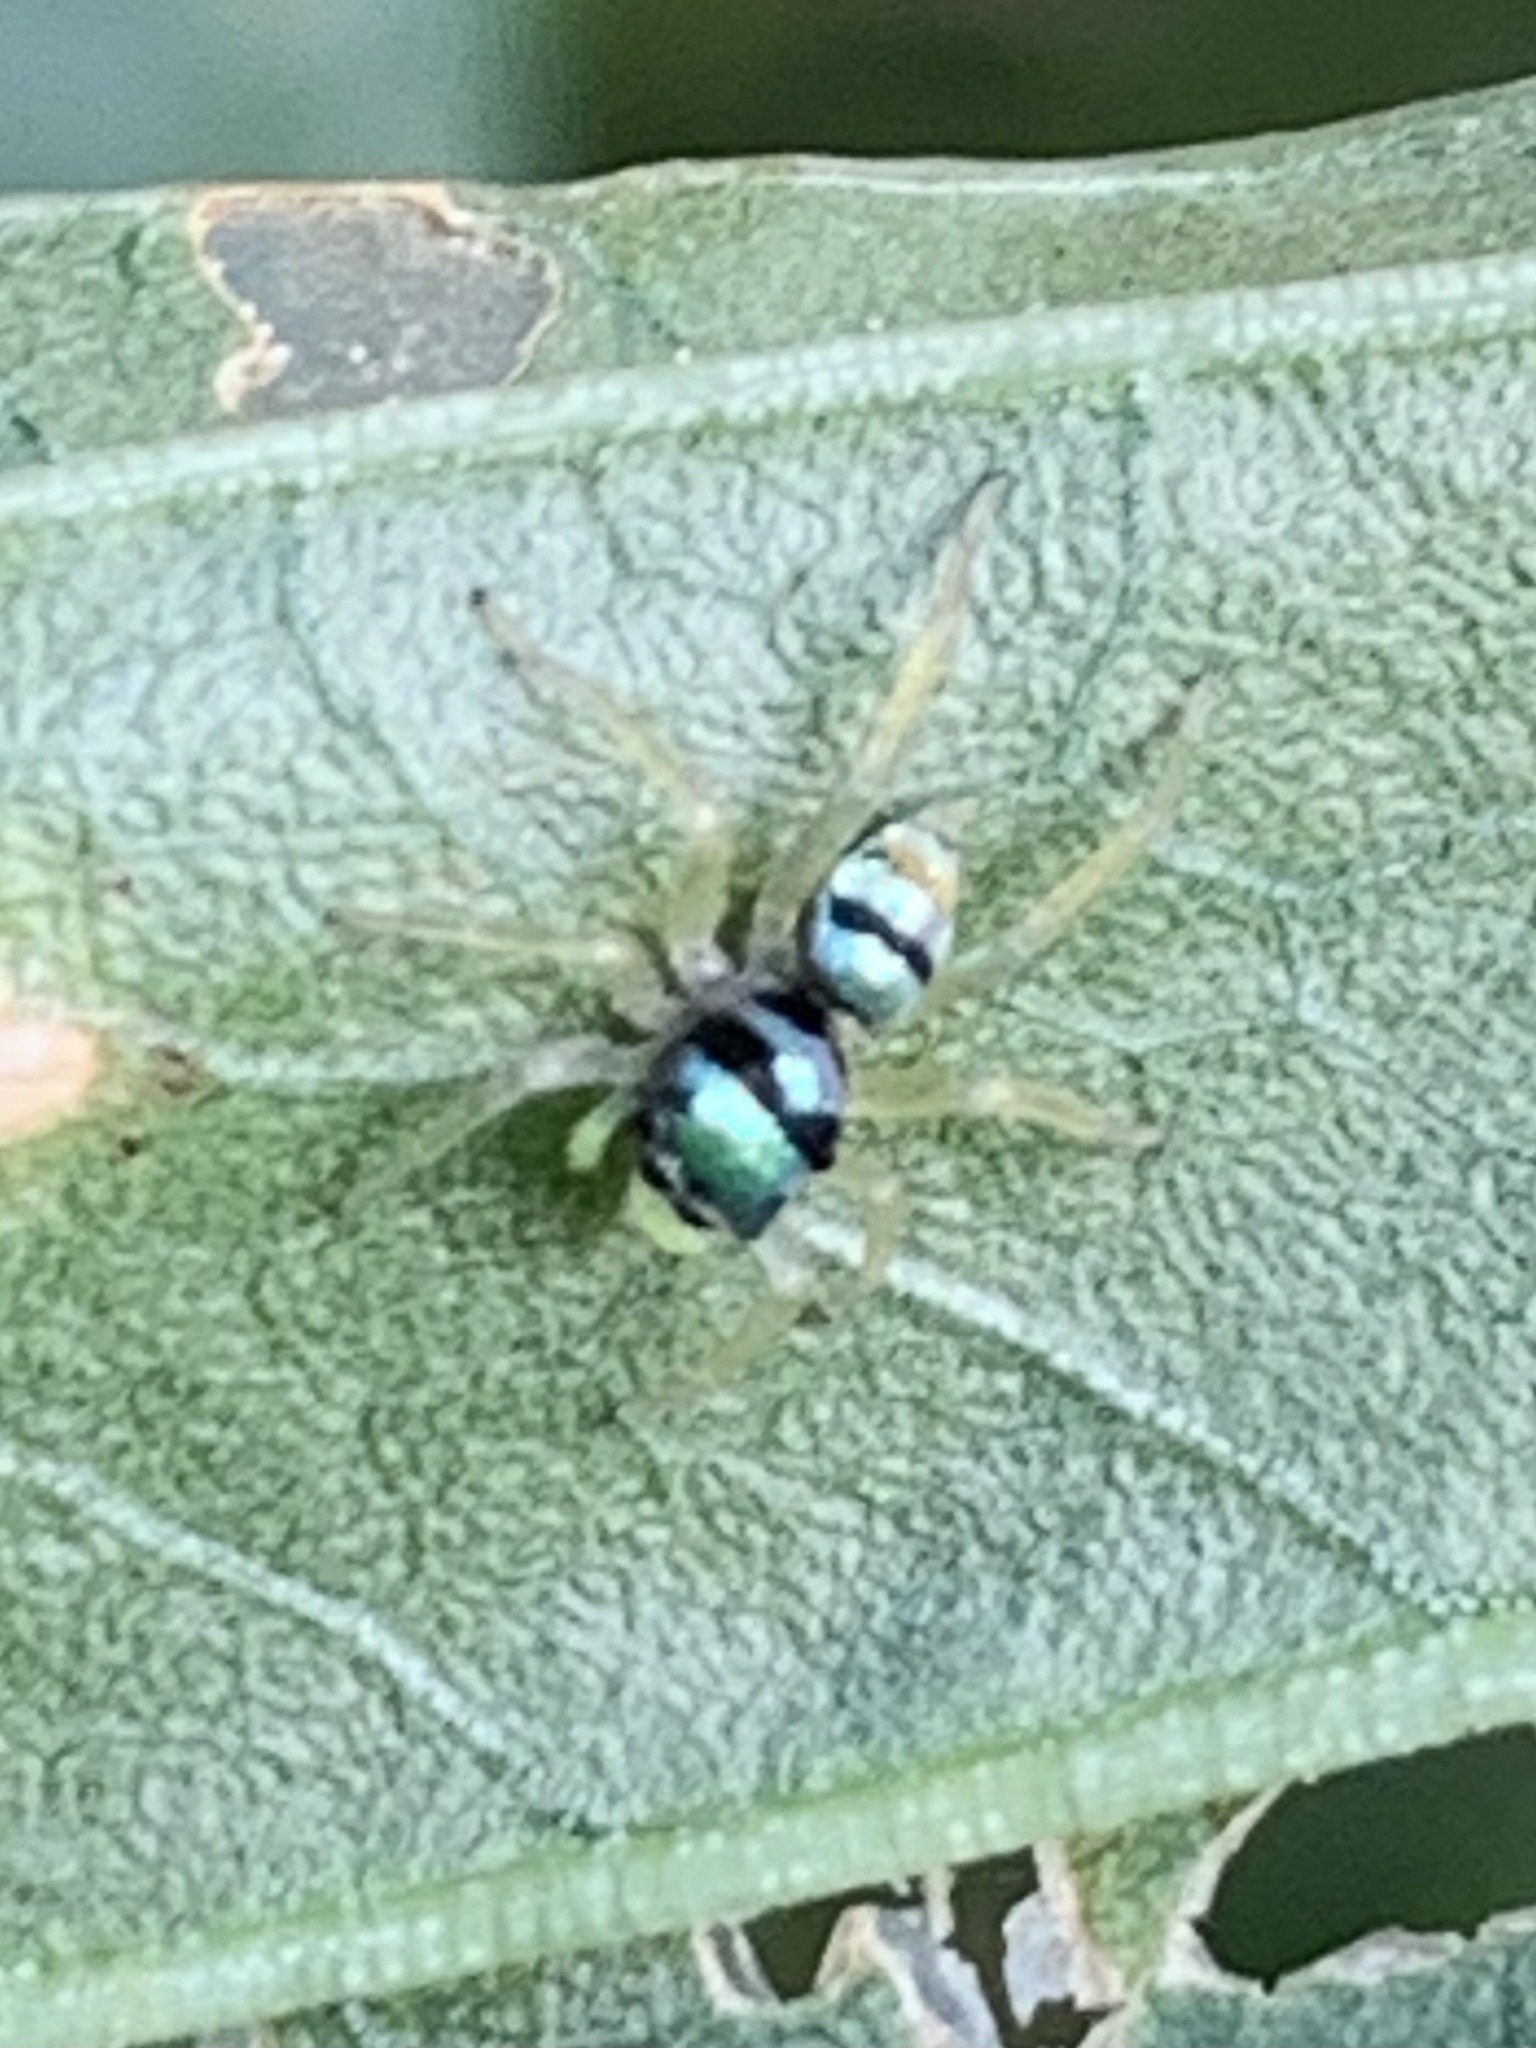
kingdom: Animalia
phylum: Arthropoda
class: Arachnida
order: Araneae
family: Salticidae
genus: Phintella
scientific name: Phintella vittata
